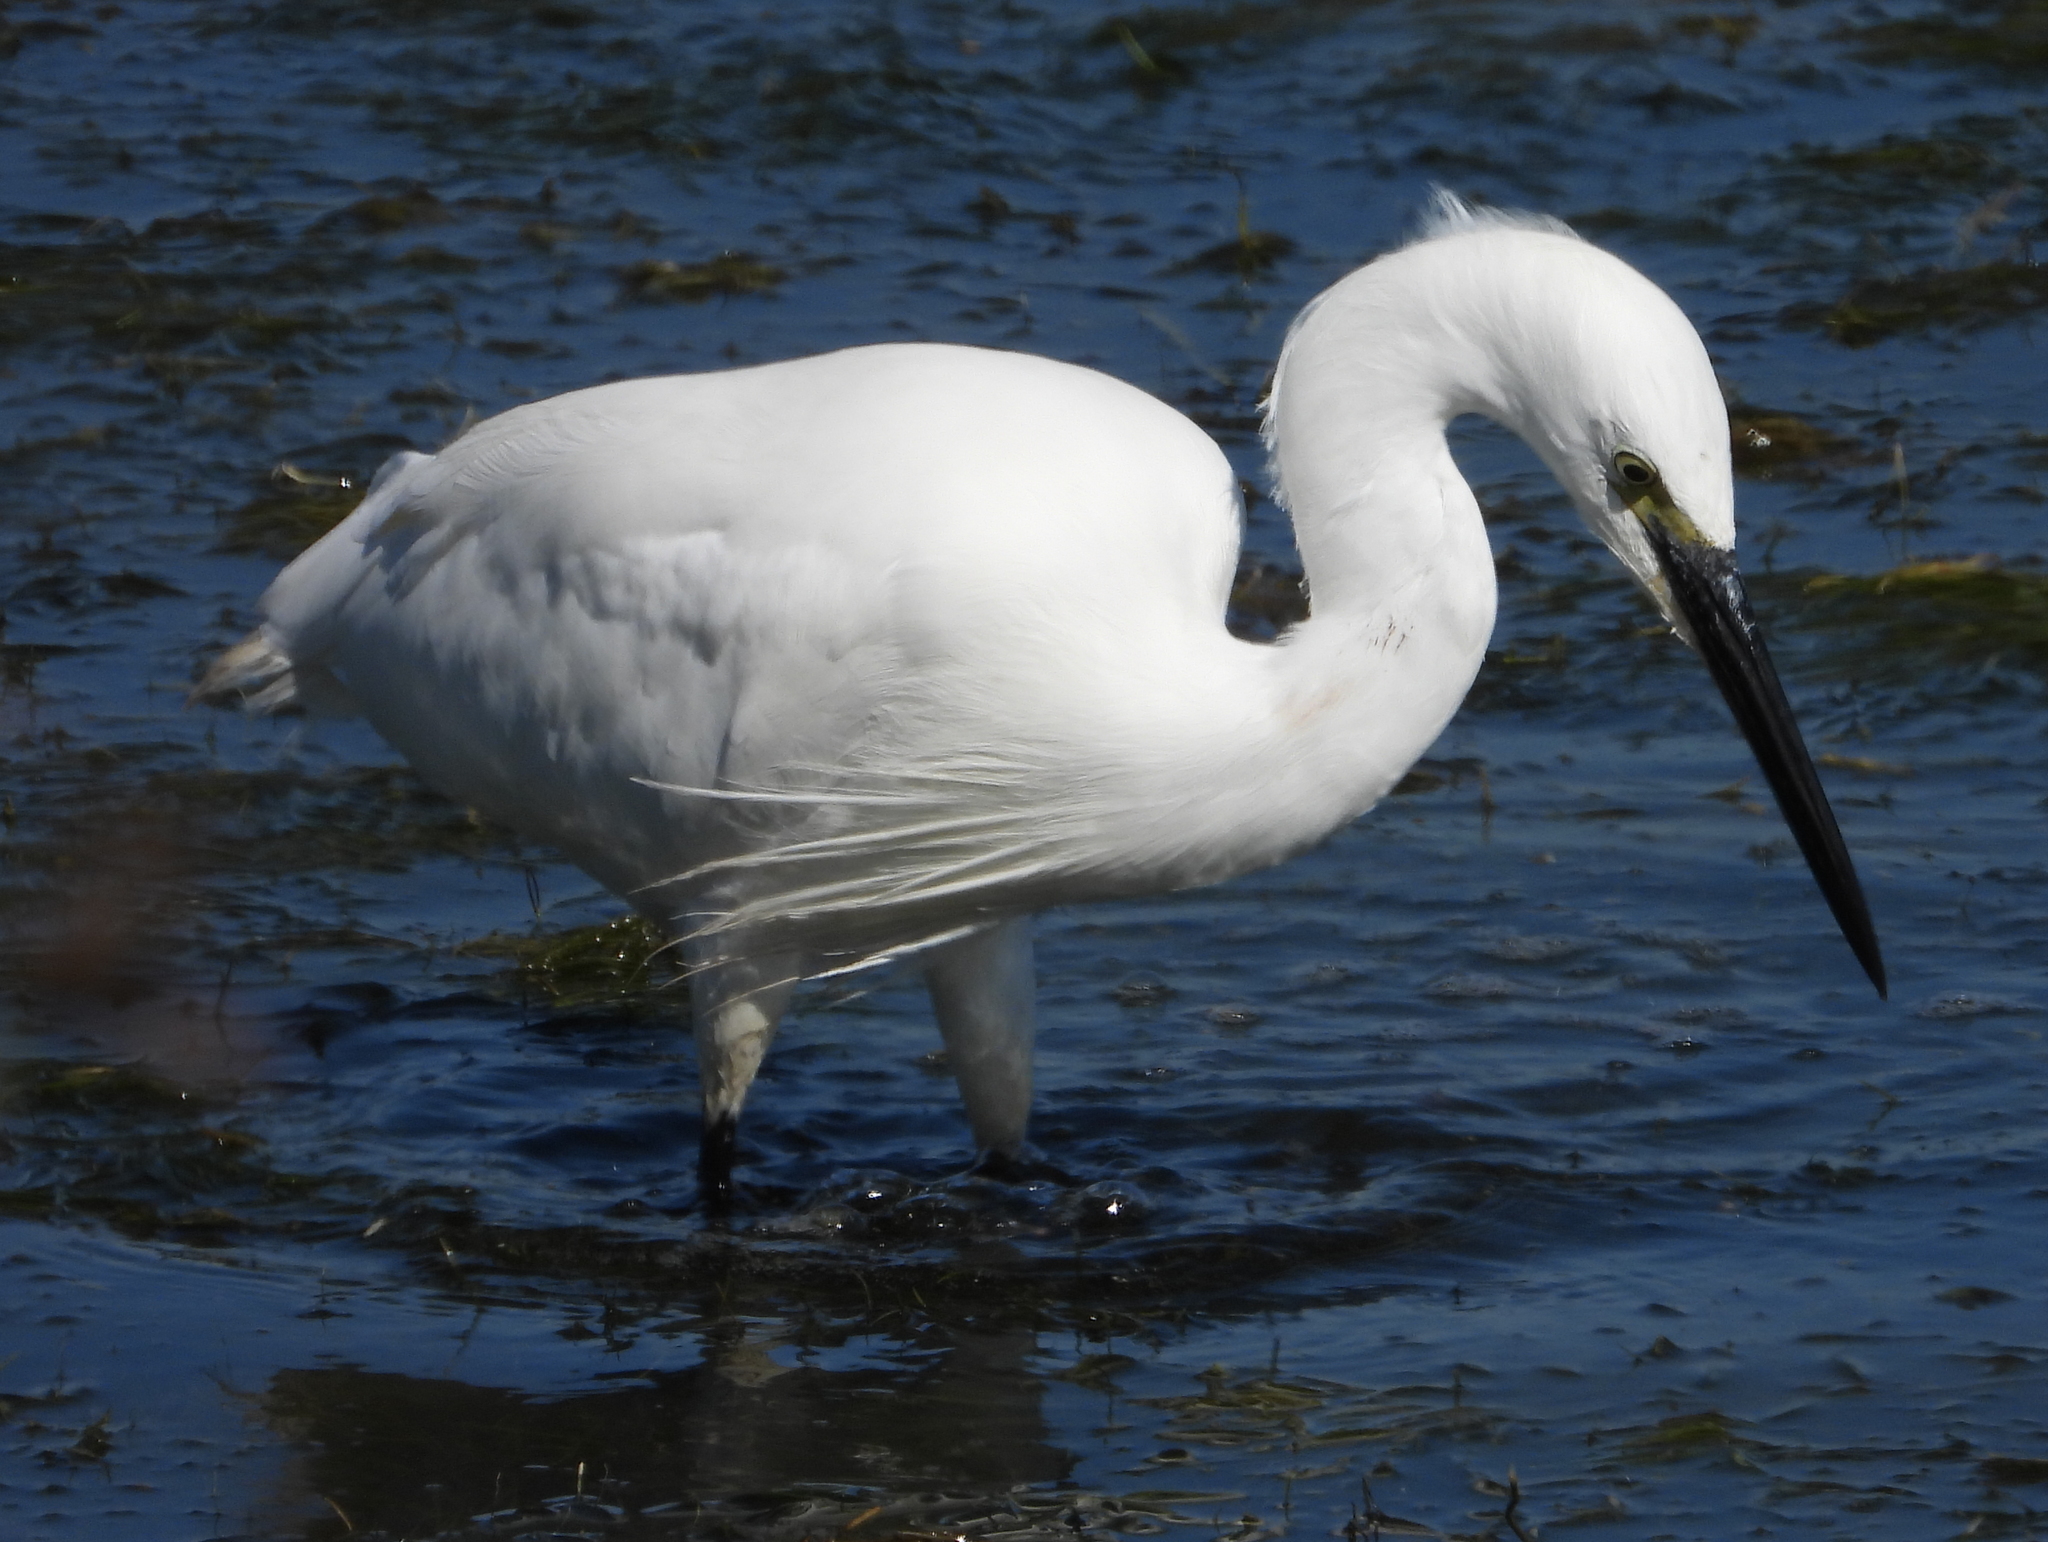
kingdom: Animalia
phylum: Chordata
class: Aves
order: Pelecaniformes
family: Ardeidae
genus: Egretta
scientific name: Egretta garzetta
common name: Little egret
